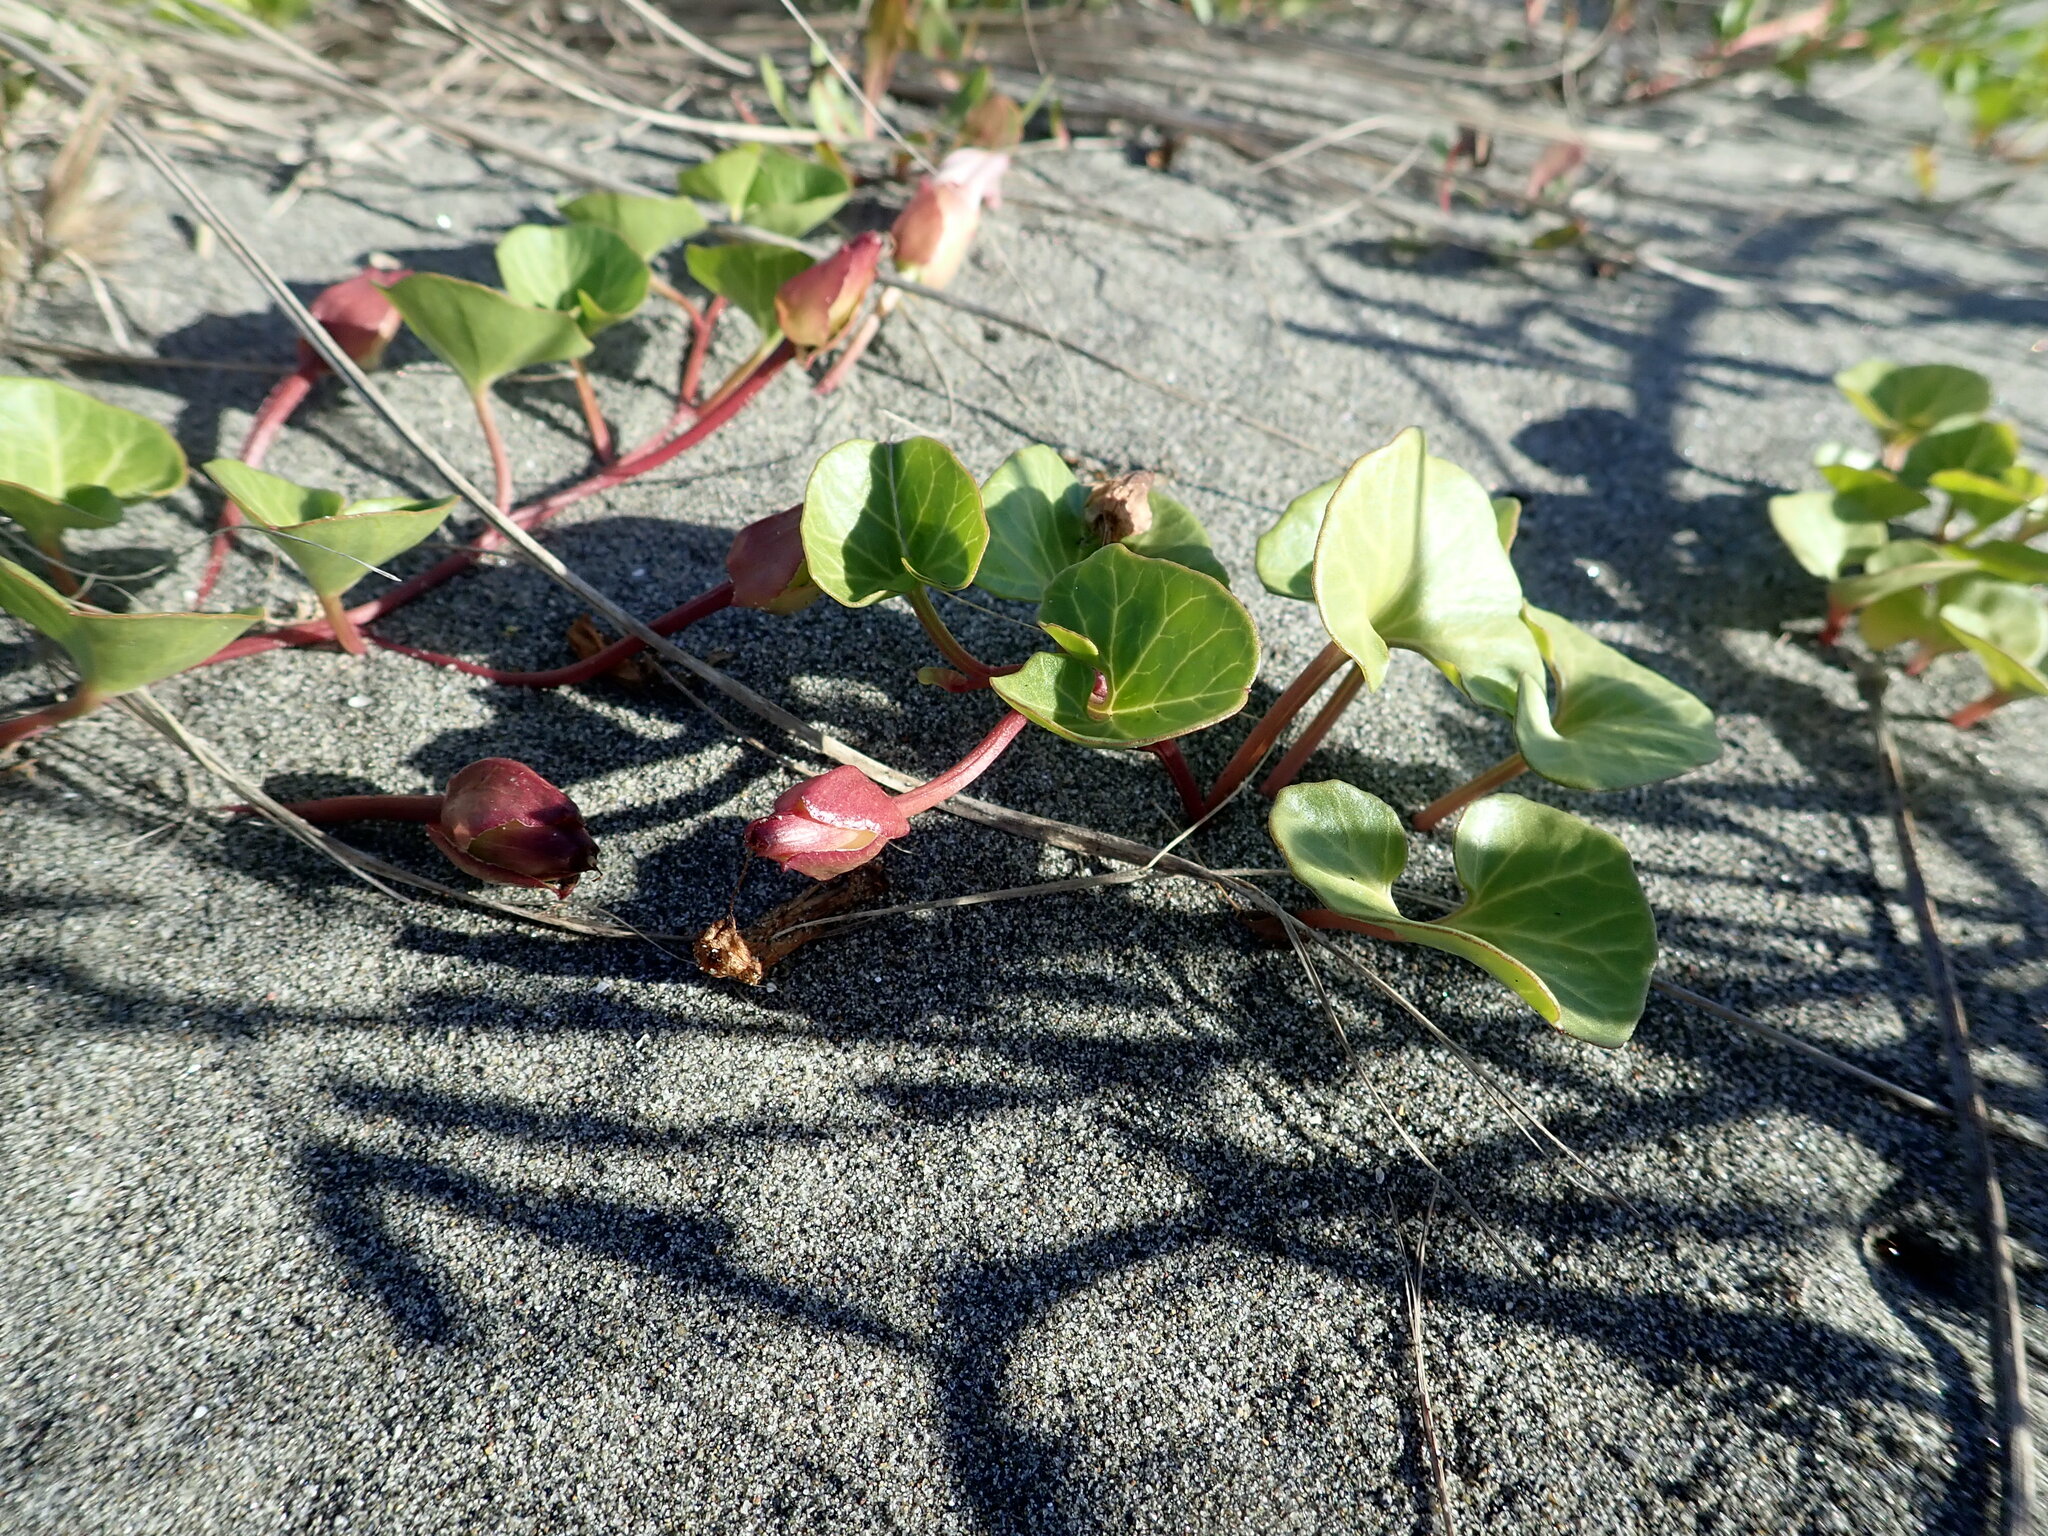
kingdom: Plantae
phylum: Tracheophyta
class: Magnoliopsida
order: Solanales
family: Convolvulaceae
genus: Calystegia
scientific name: Calystegia soldanella
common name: Sea bindweed
